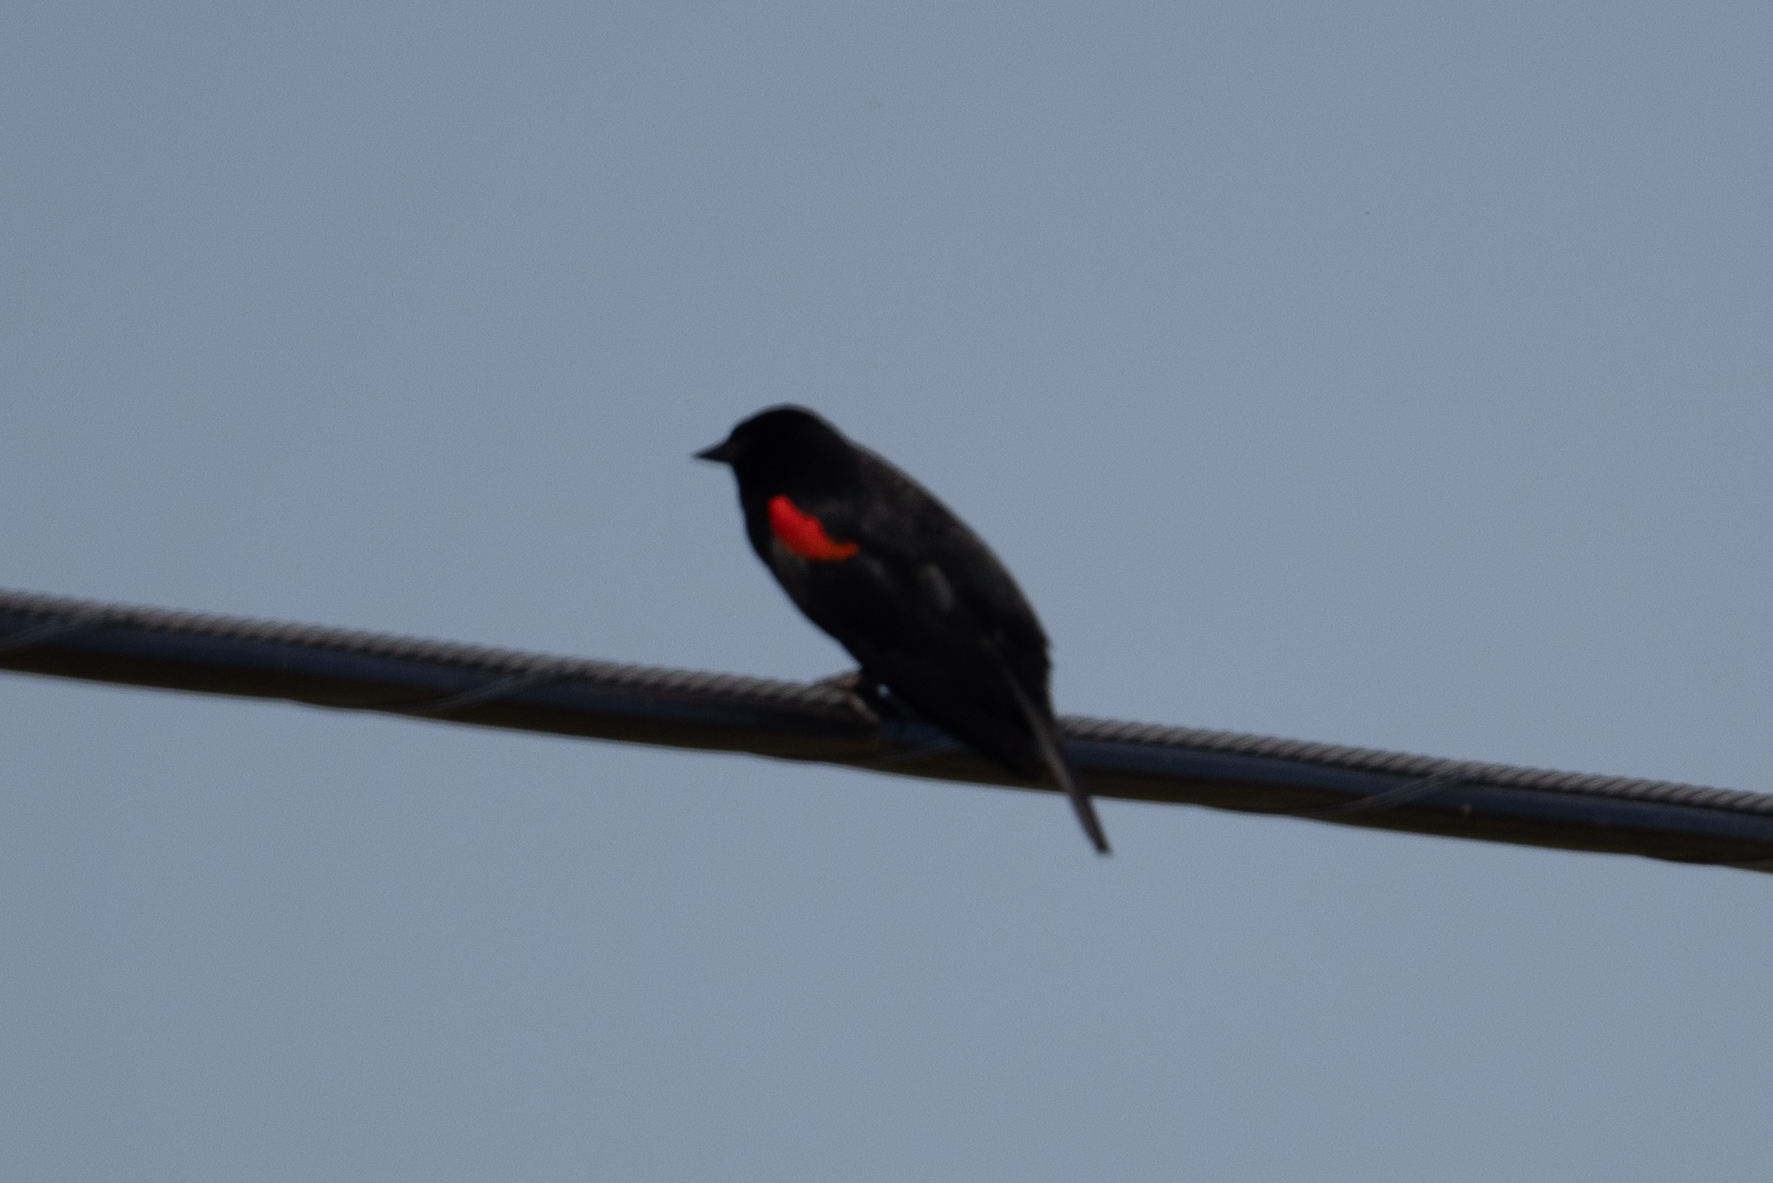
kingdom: Animalia
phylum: Chordata
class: Aves
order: Passeriformes
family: Icteridae
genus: Agelaius
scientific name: Agelaius phoeniceus
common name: Red-winged blackbird
